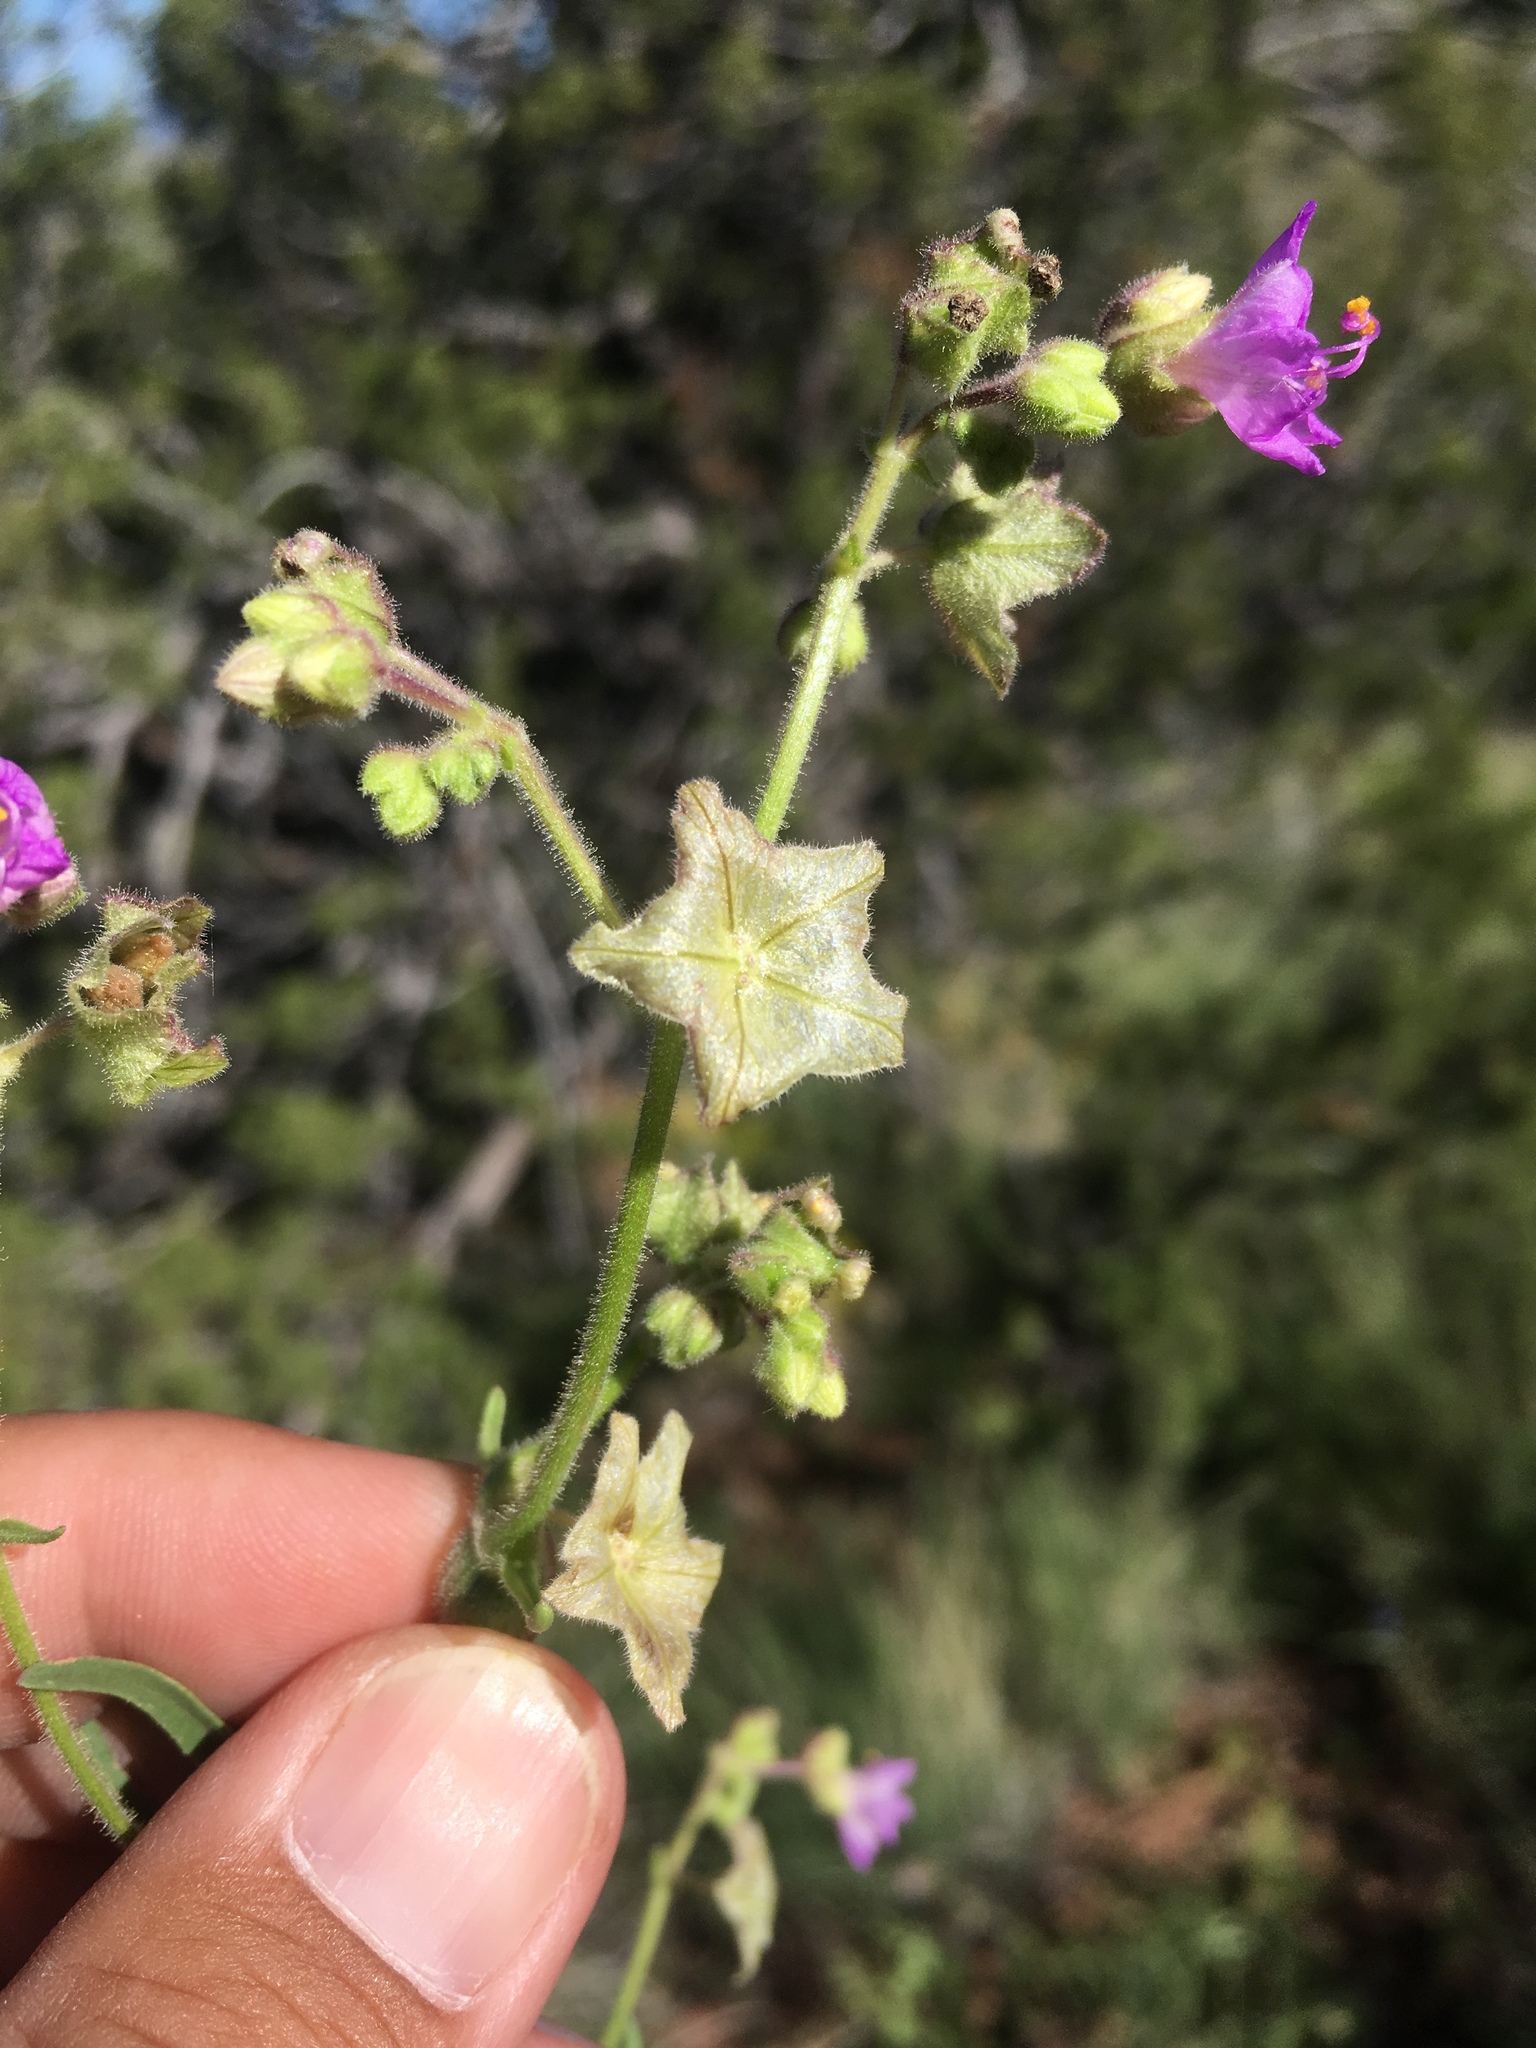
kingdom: Plantae
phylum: Tracheophyta
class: Magnoliopsida
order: Caryophyllales
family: Nyctaginaceae
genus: Mirabilis
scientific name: Mirabilis linearis
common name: Linear-leaved four-o'clock
